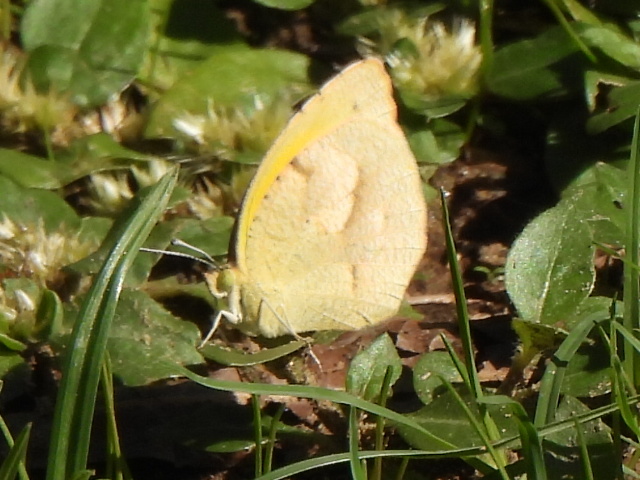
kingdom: Animalia
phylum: Arthropoda
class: Insecta
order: Lepidoptera
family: Pieridae
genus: Abaeis
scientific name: Abaeis nicippe
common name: Sleepy orange
